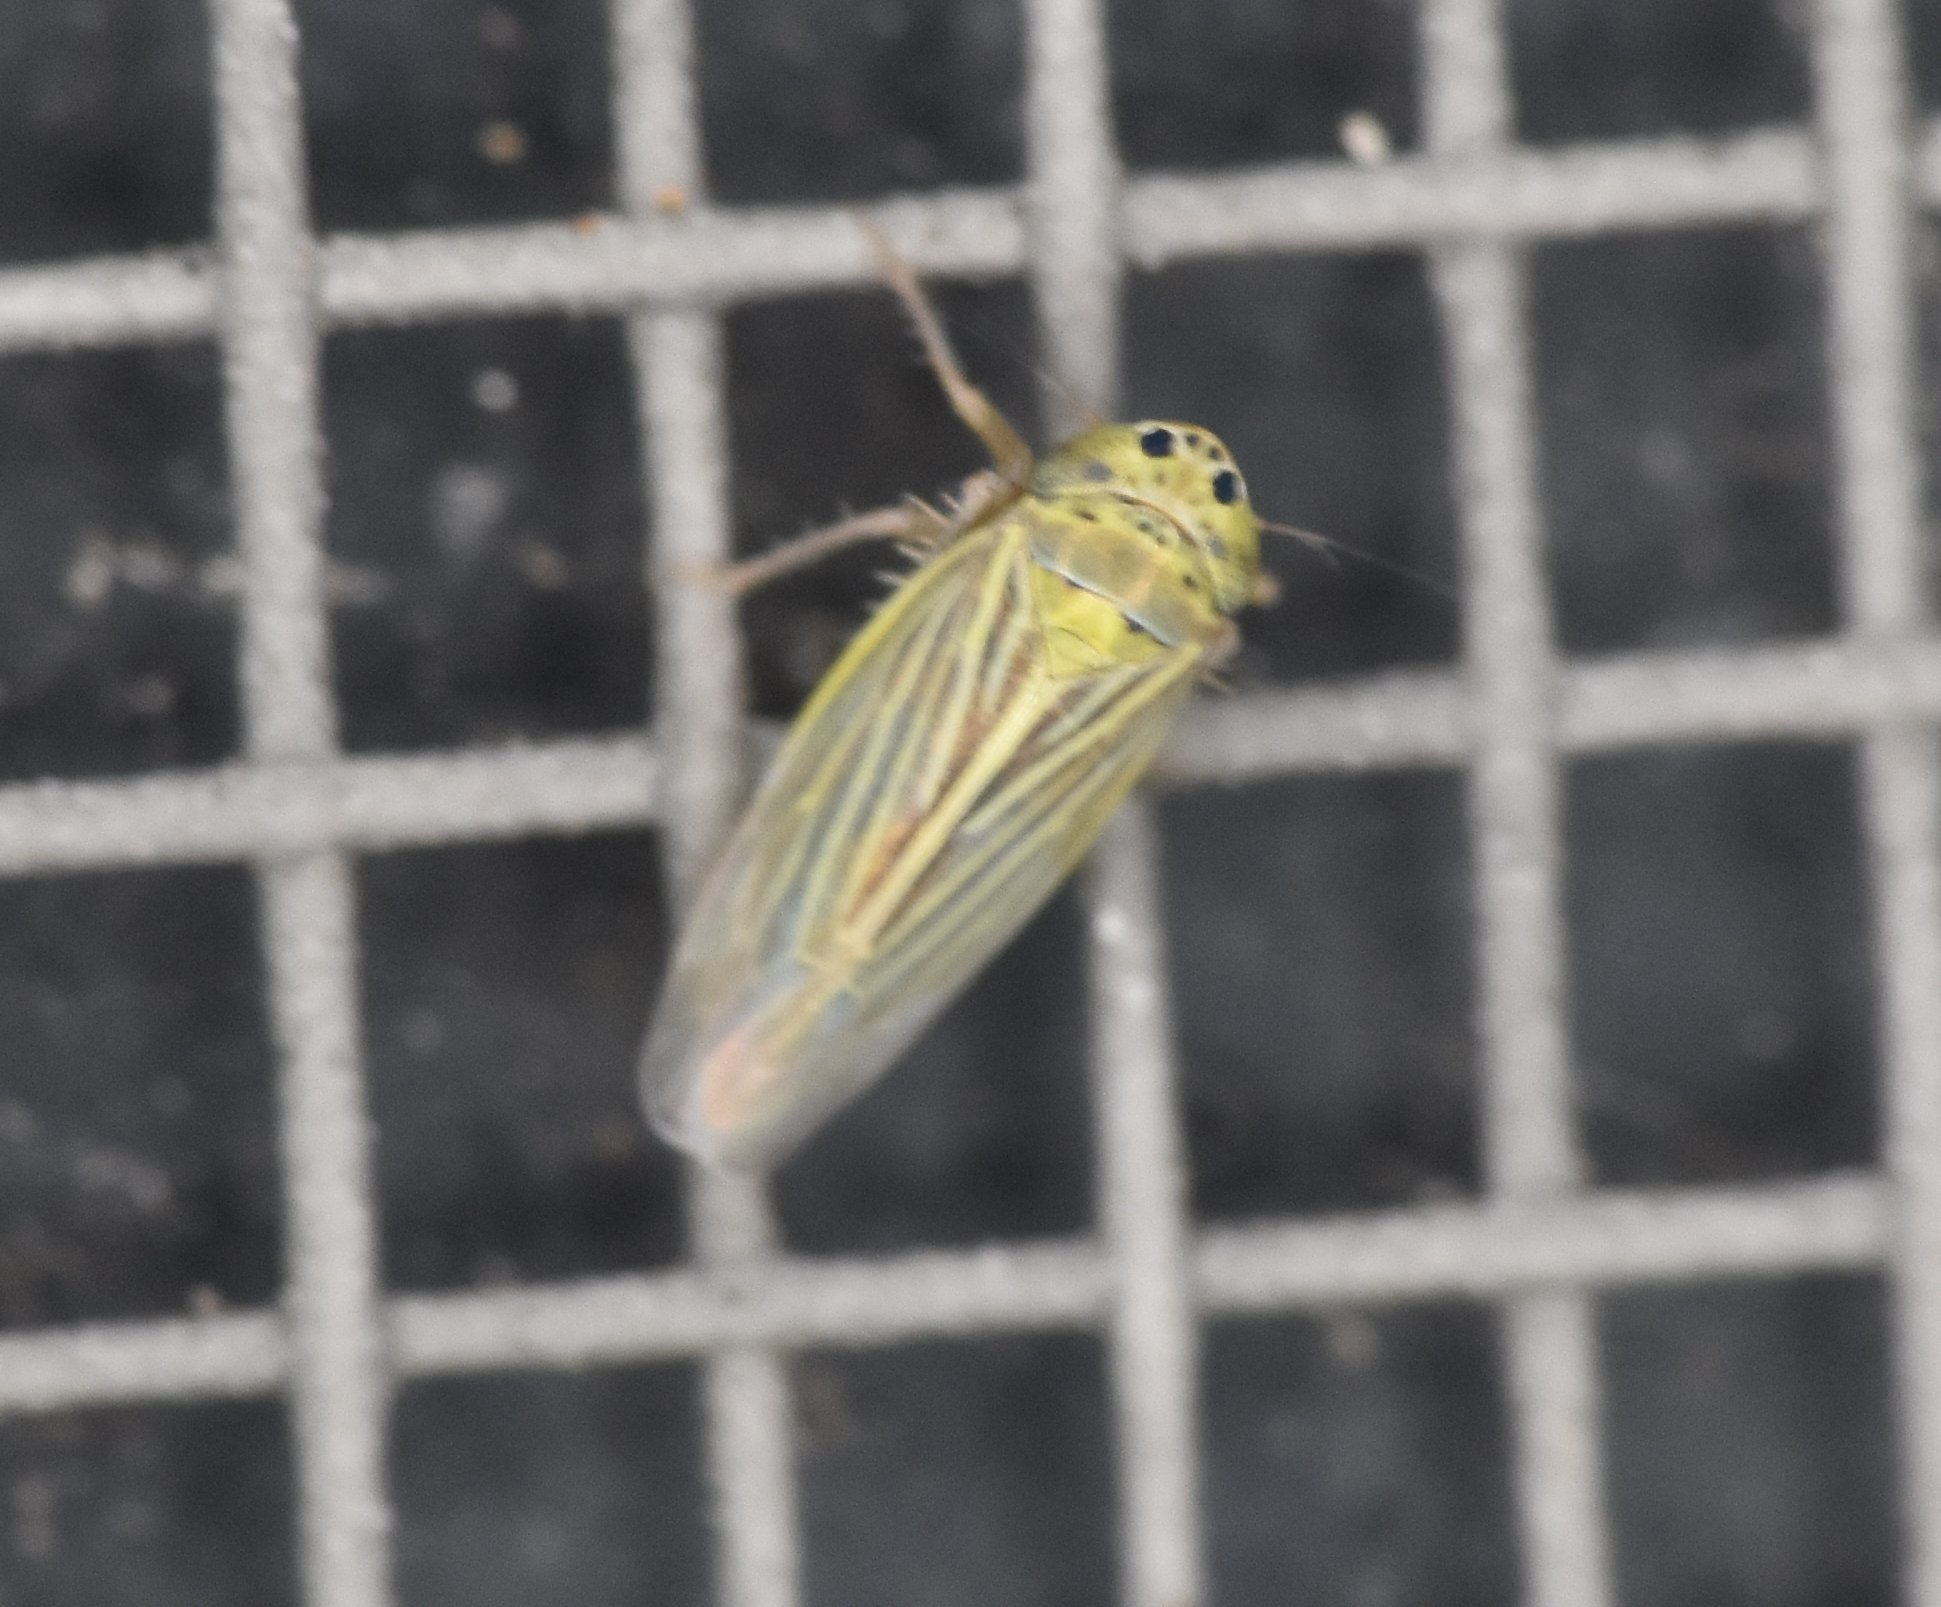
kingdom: Animalia
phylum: Arthropoda
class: Insecta
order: Hemiptera
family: Cicadellidae
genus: Graminella
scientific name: Graminella cognita
